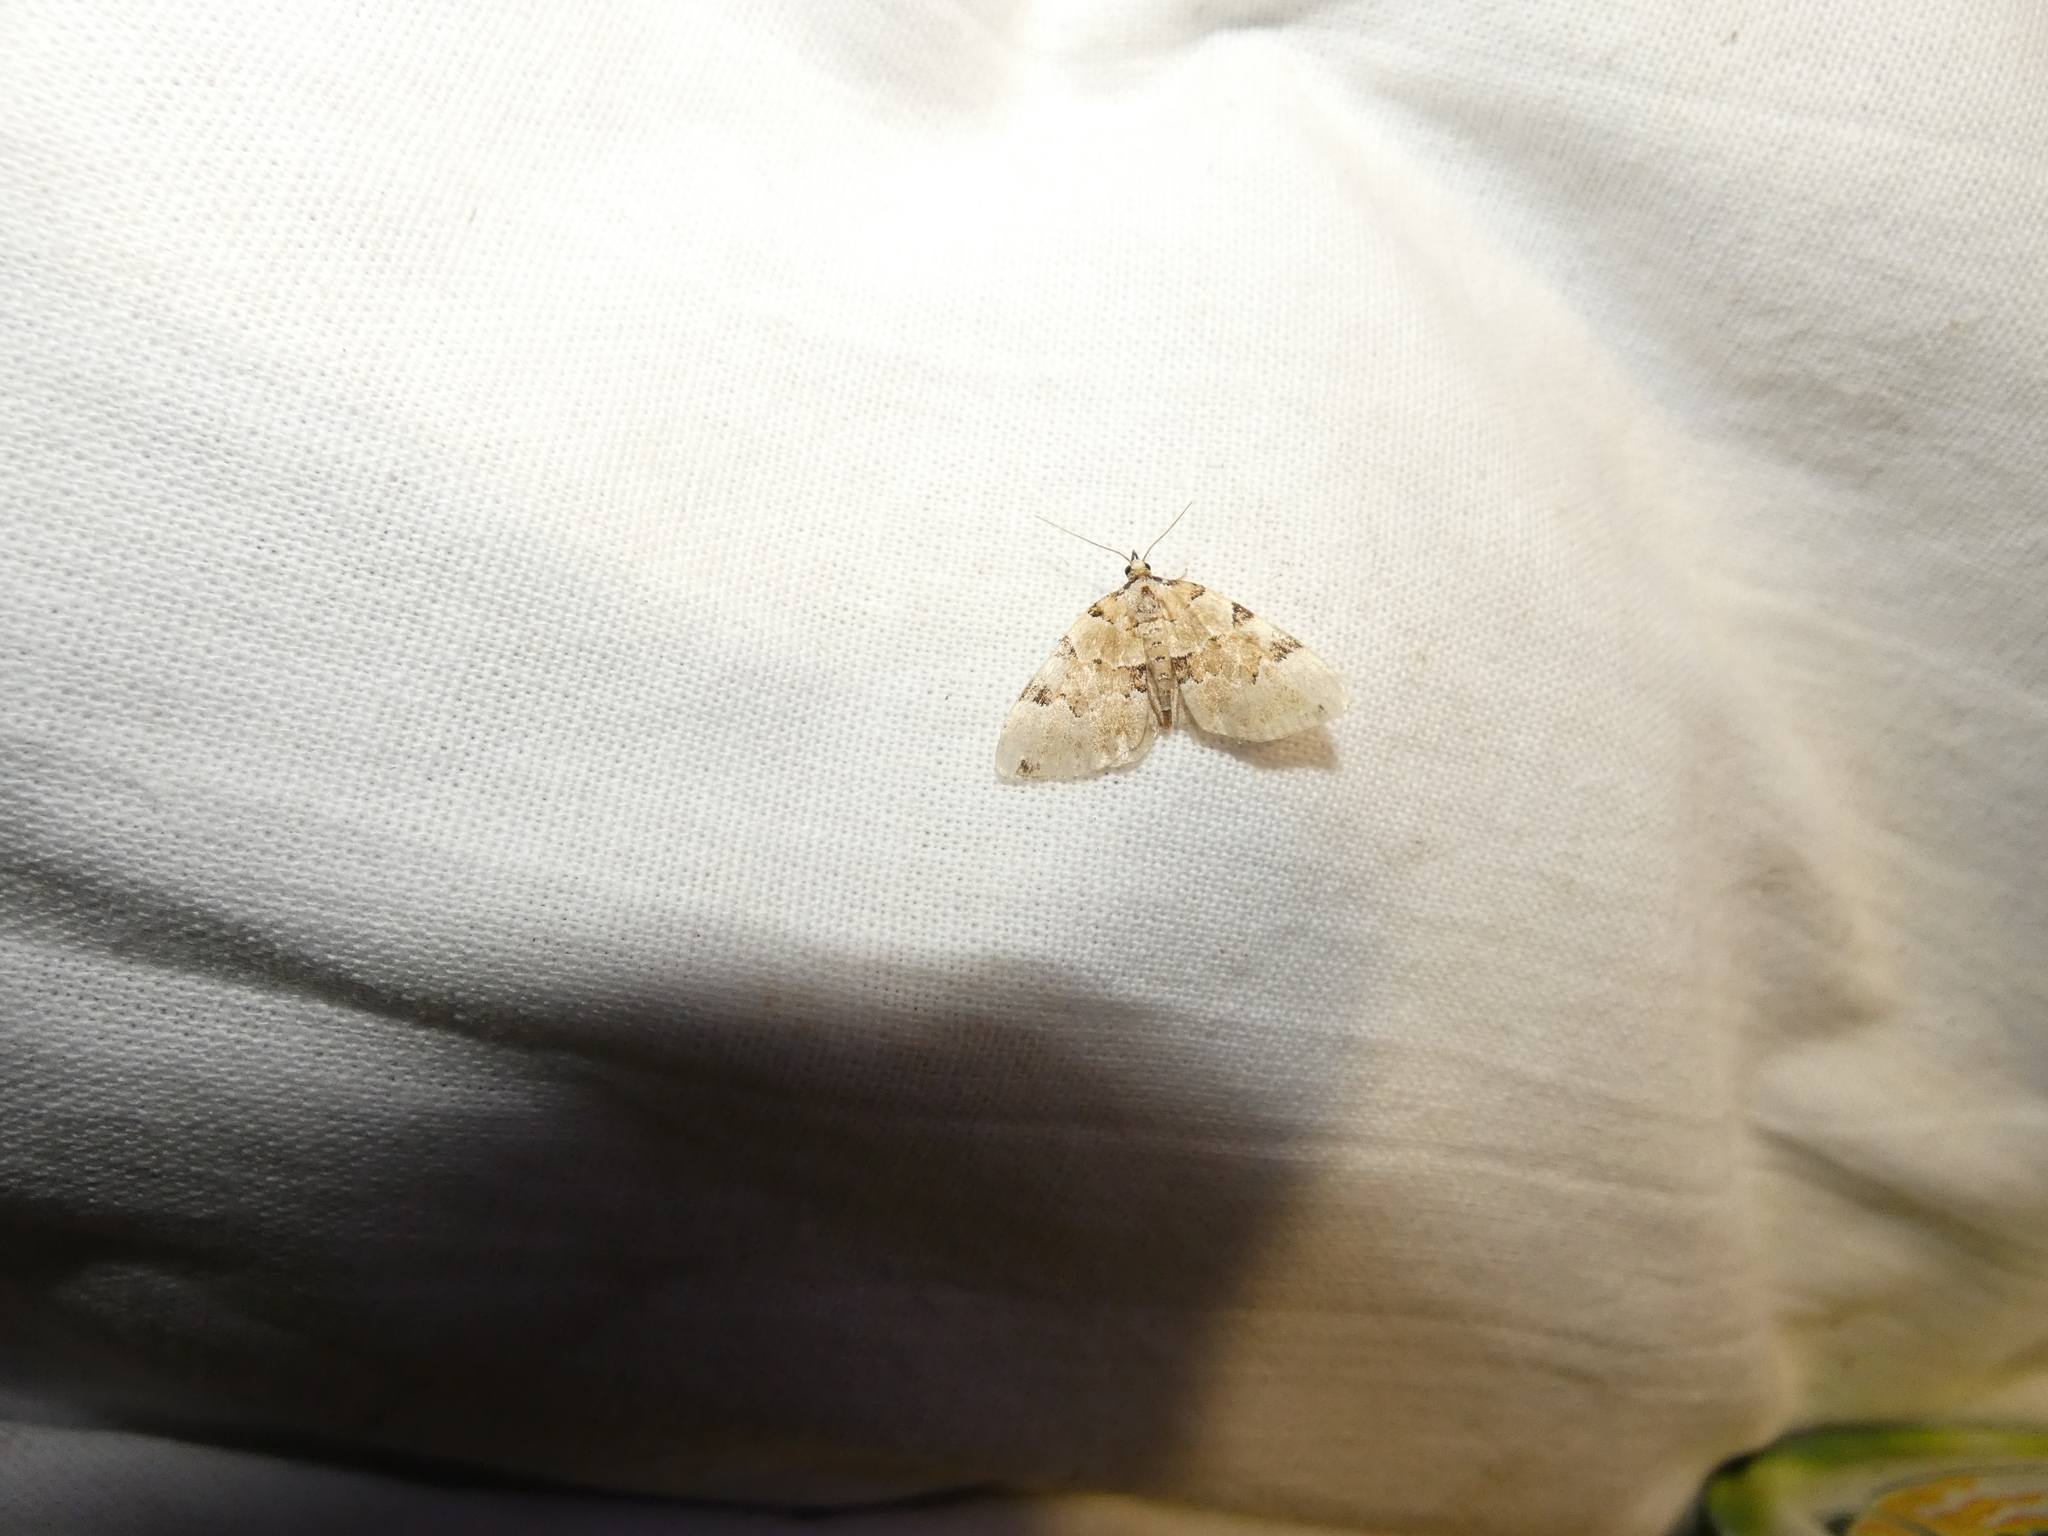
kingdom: Animalia
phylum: Arthropoda
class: Insecta
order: Lepidoptera
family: Geometridae
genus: Colostygia
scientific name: Colostygia pectinataria
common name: Green carpet
